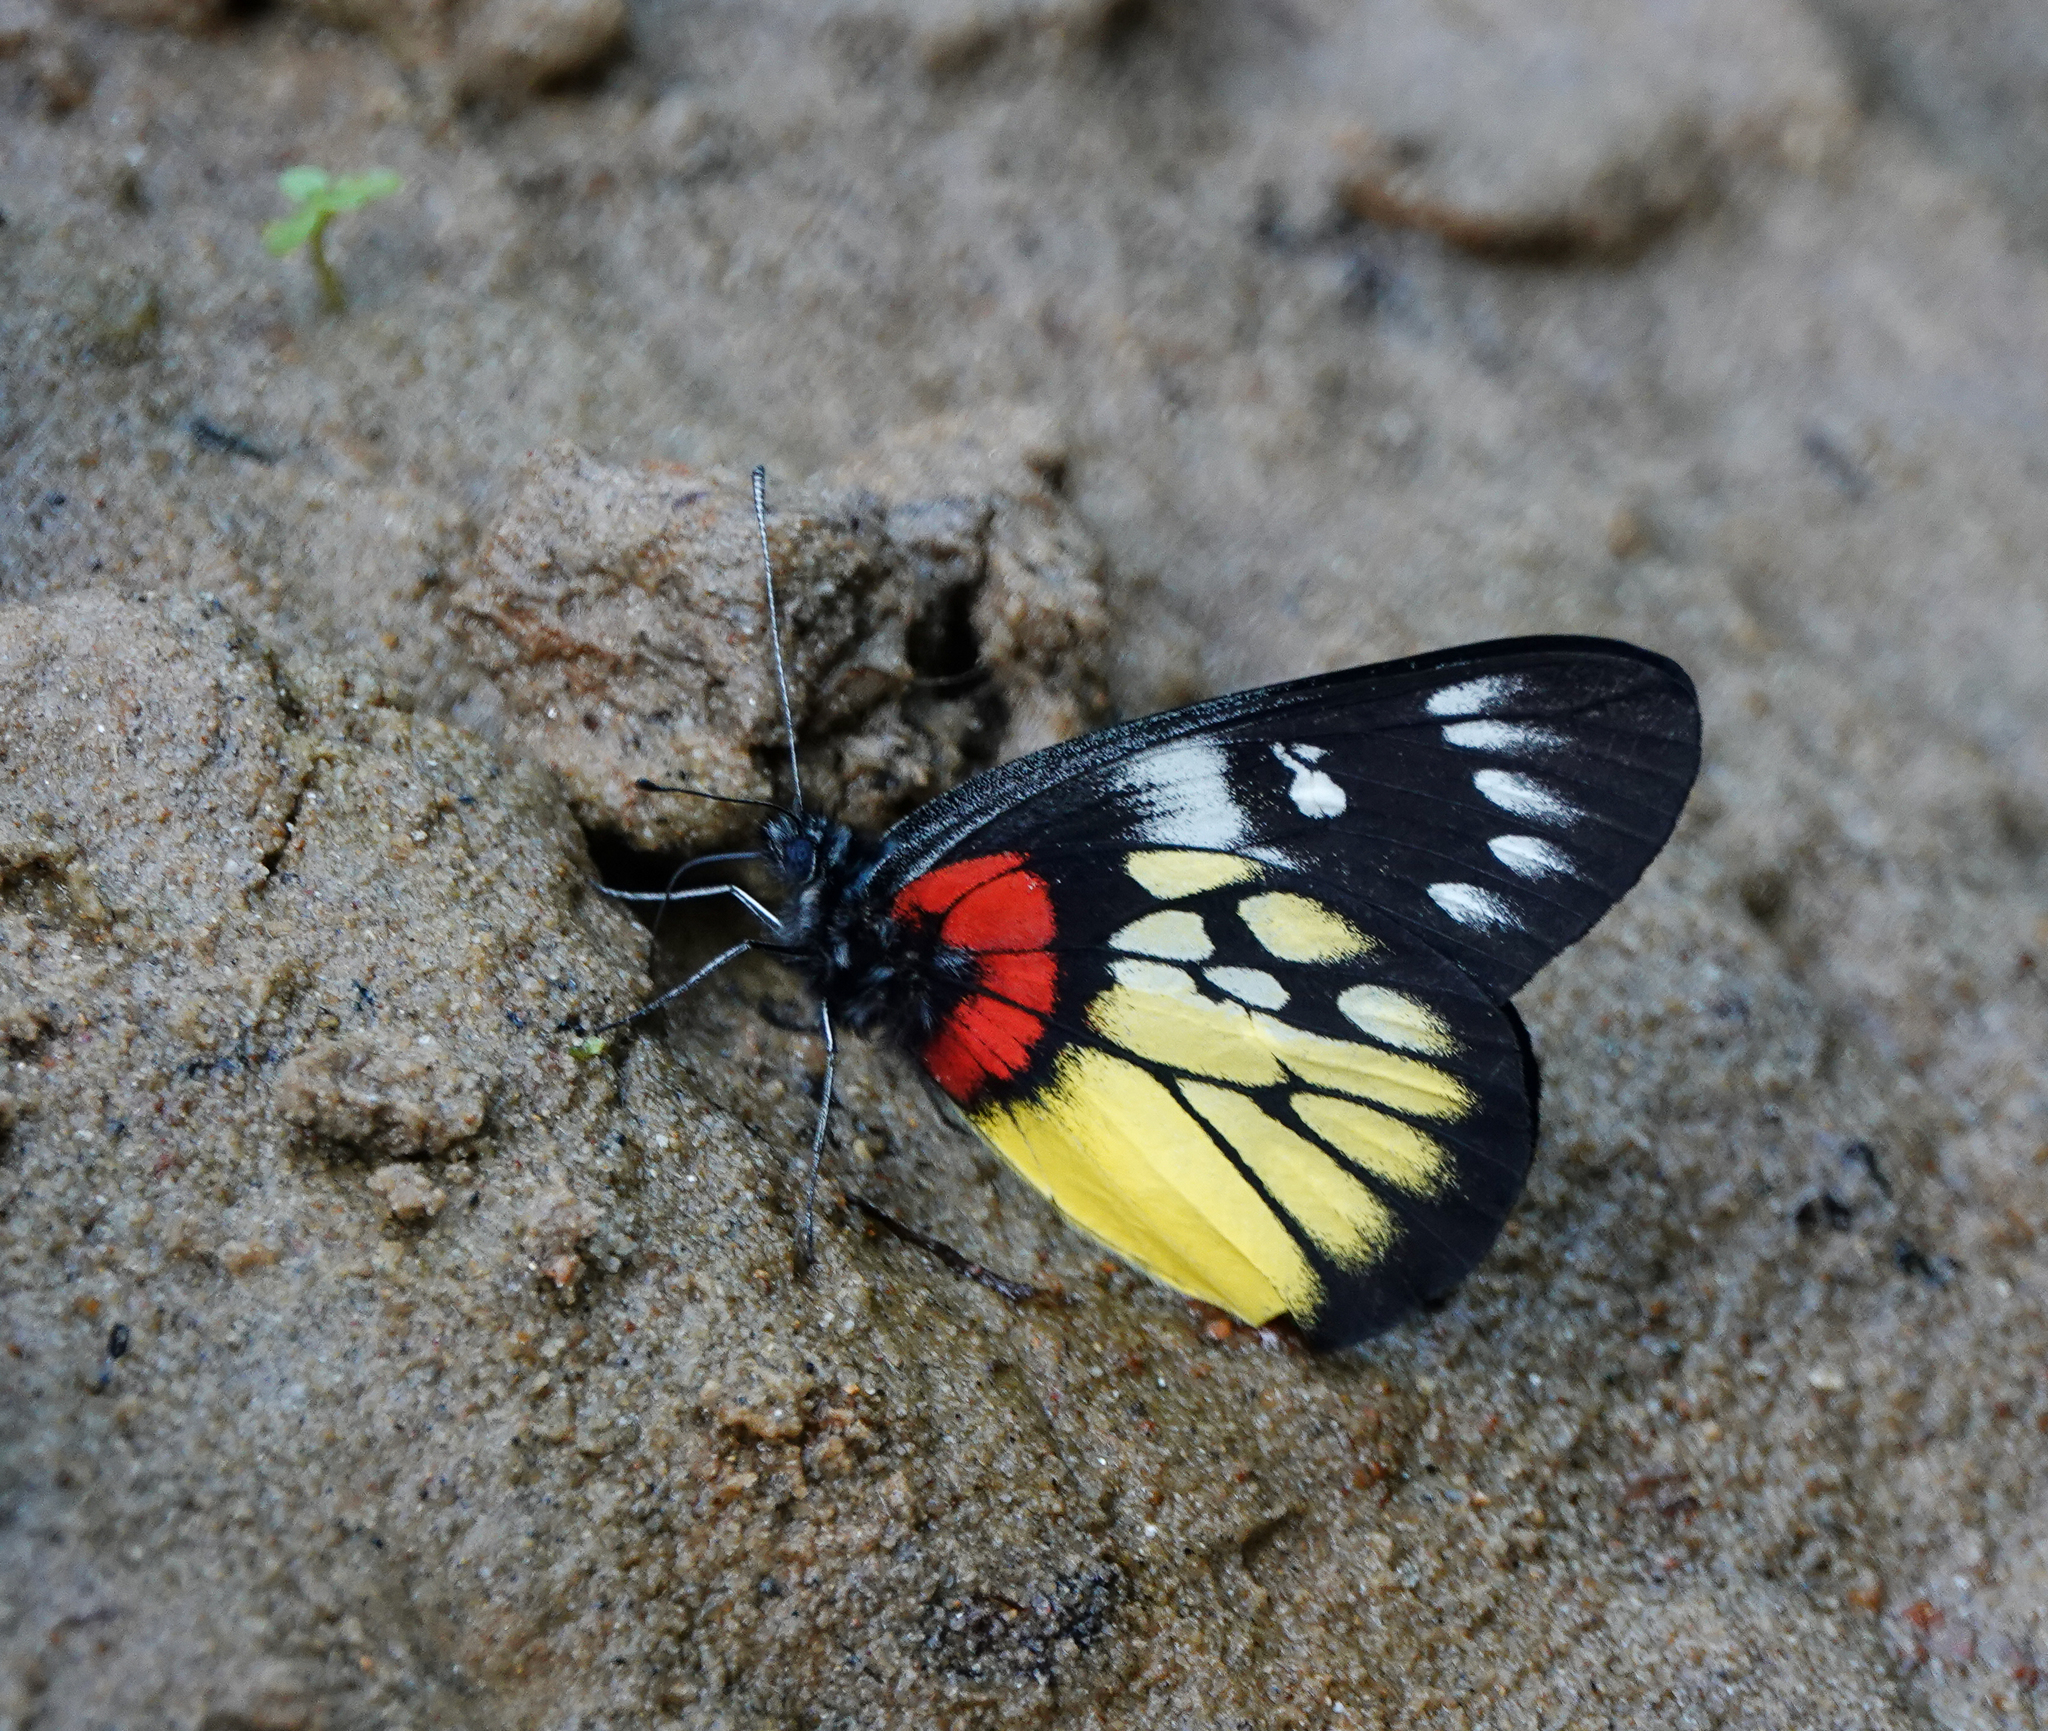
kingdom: Animalia
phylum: Arthropoda
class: Insecta
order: Lepidoptera
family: Pieridae
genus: Delias
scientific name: Delias pasithoe
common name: Red-base jezebel
